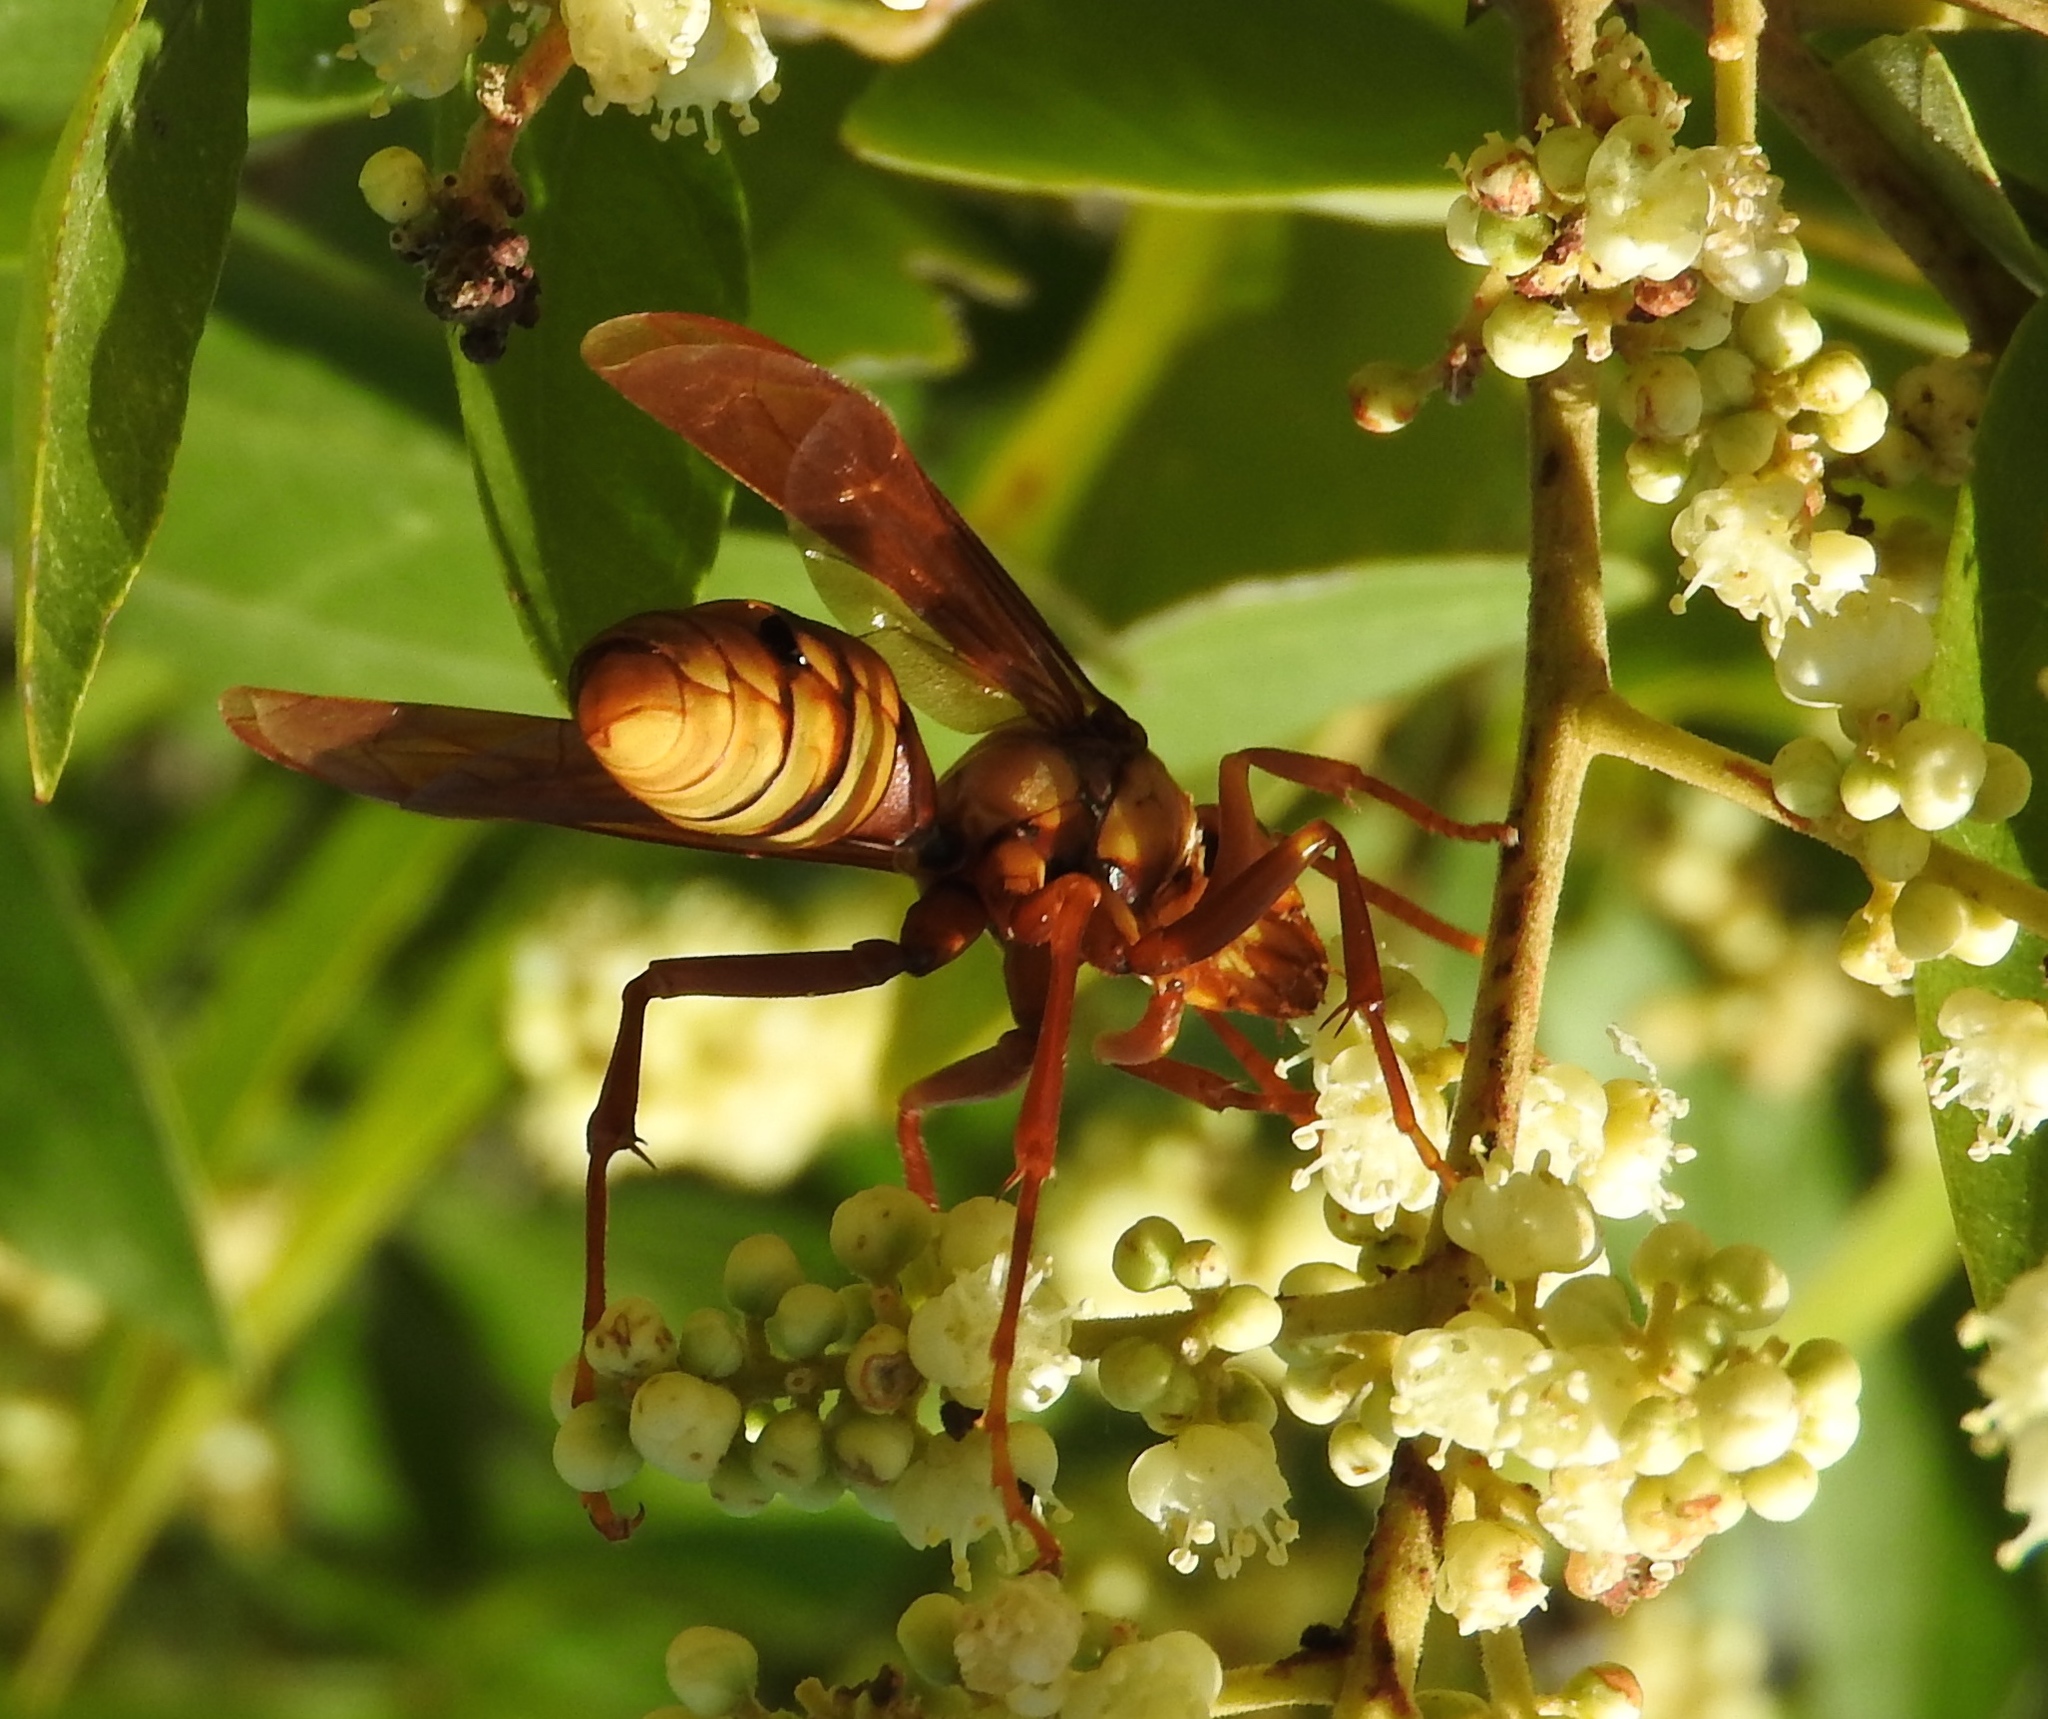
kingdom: Animalia
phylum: Arthropoda
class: Insecta
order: Hymenoptera
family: Eumenidae
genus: Polistes
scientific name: Polistes carnifex
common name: Paper wasp
